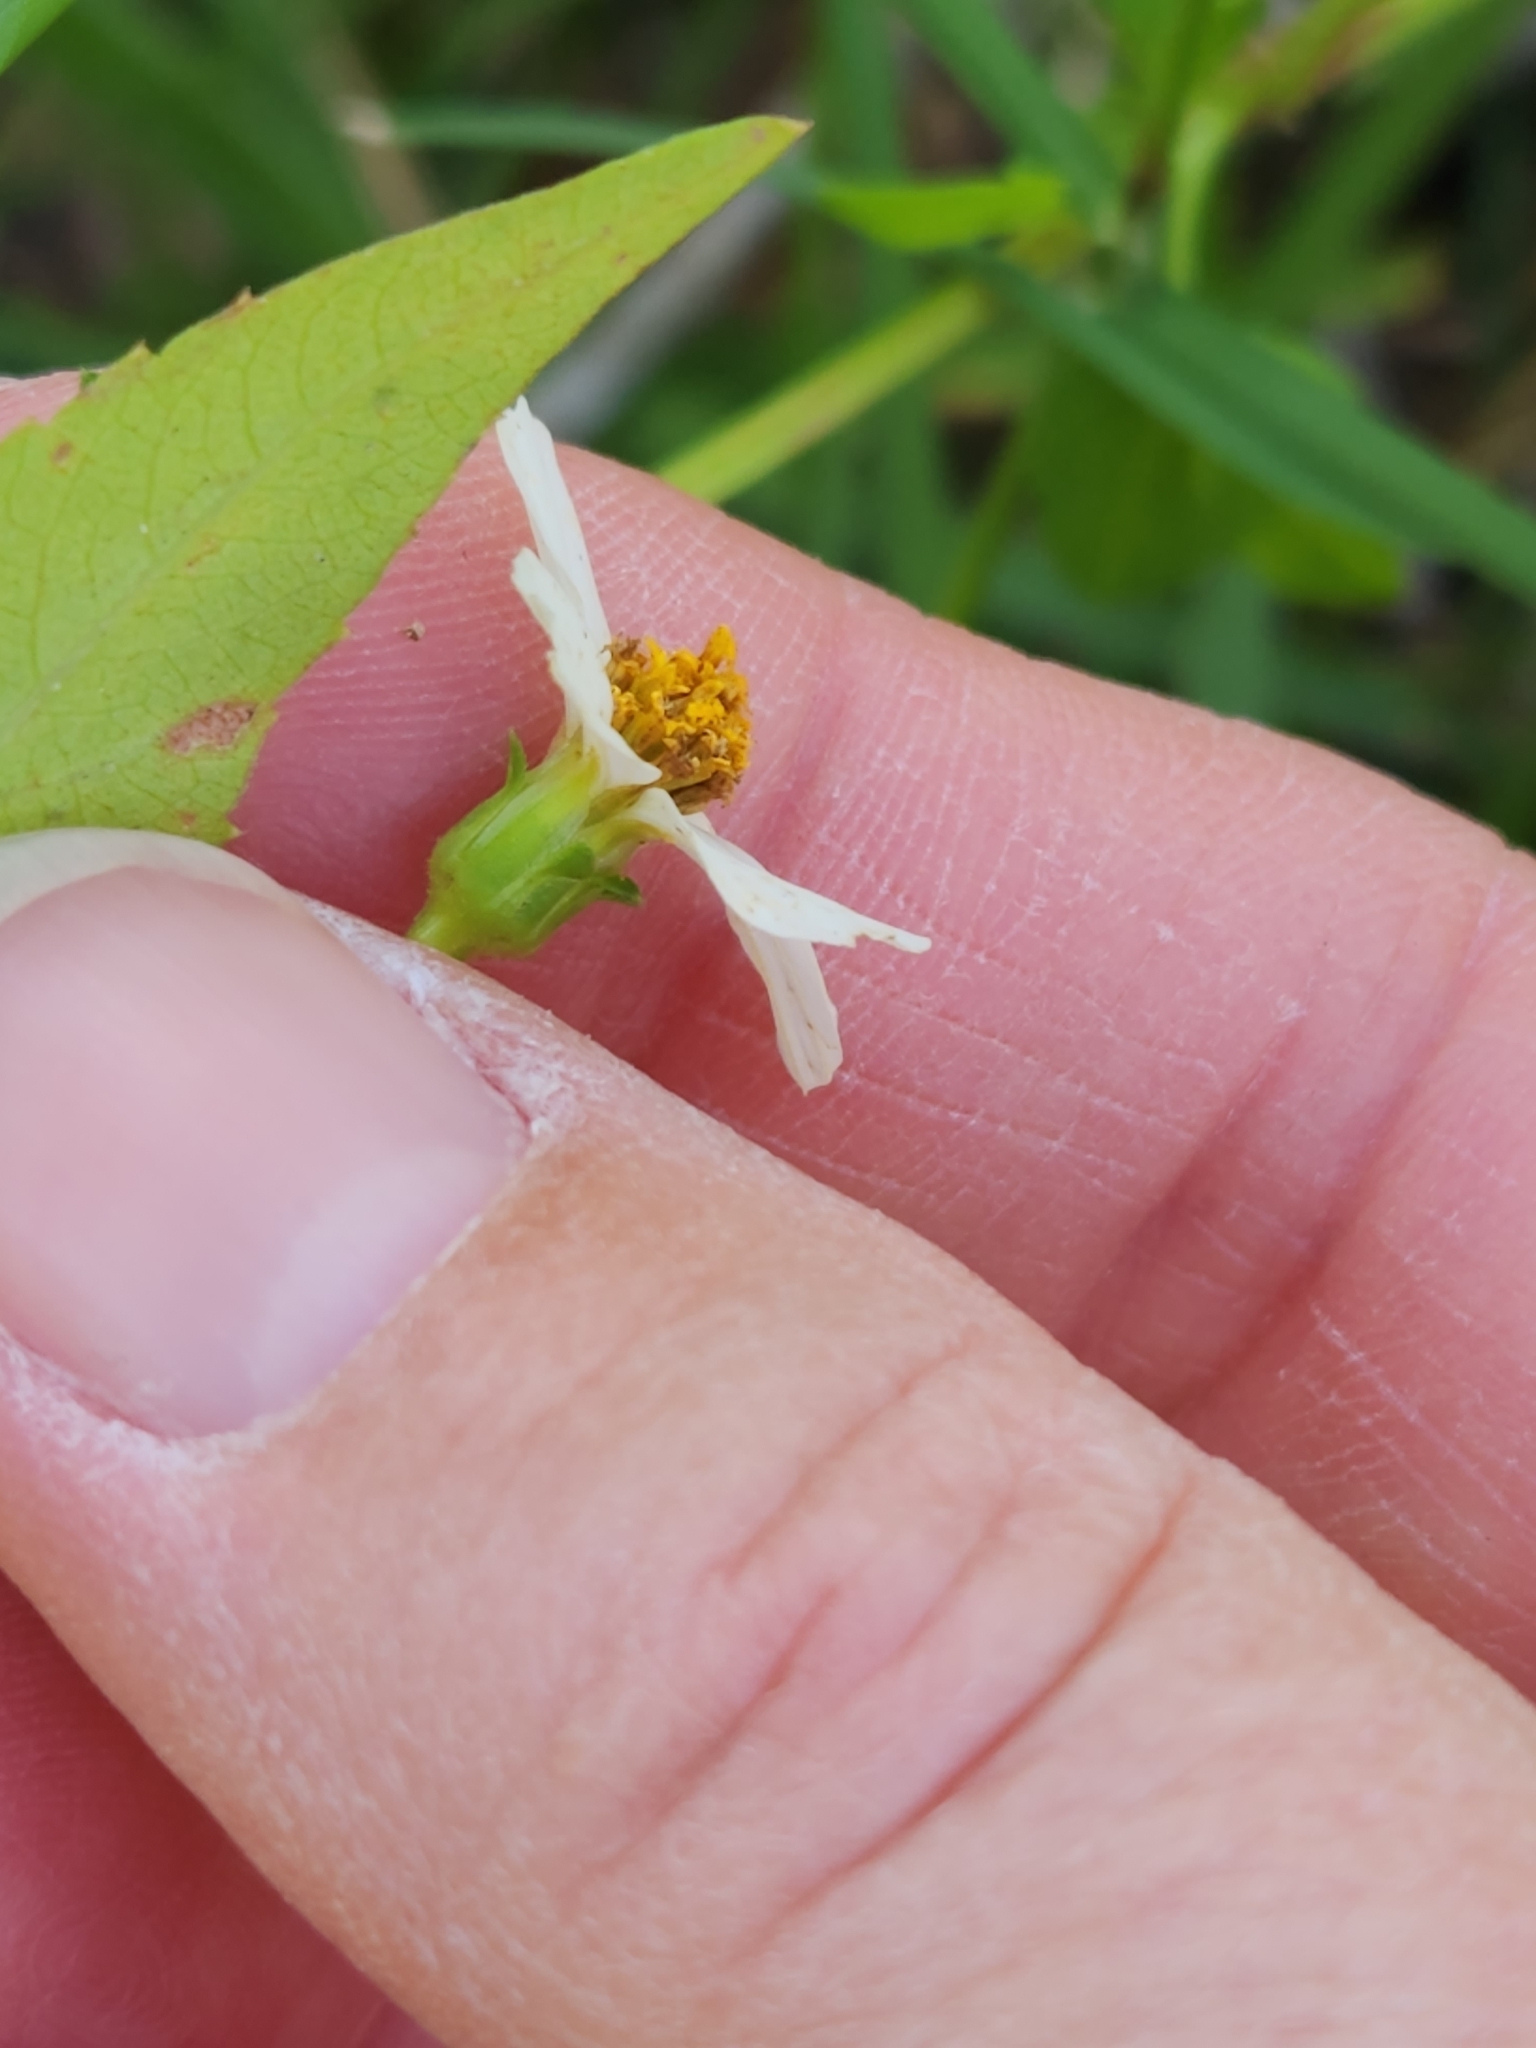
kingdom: Plantae
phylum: Tracheophyta
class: Magnoliopsida
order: Asterales
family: Asteraceae
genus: Bidens
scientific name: Bidens alba
